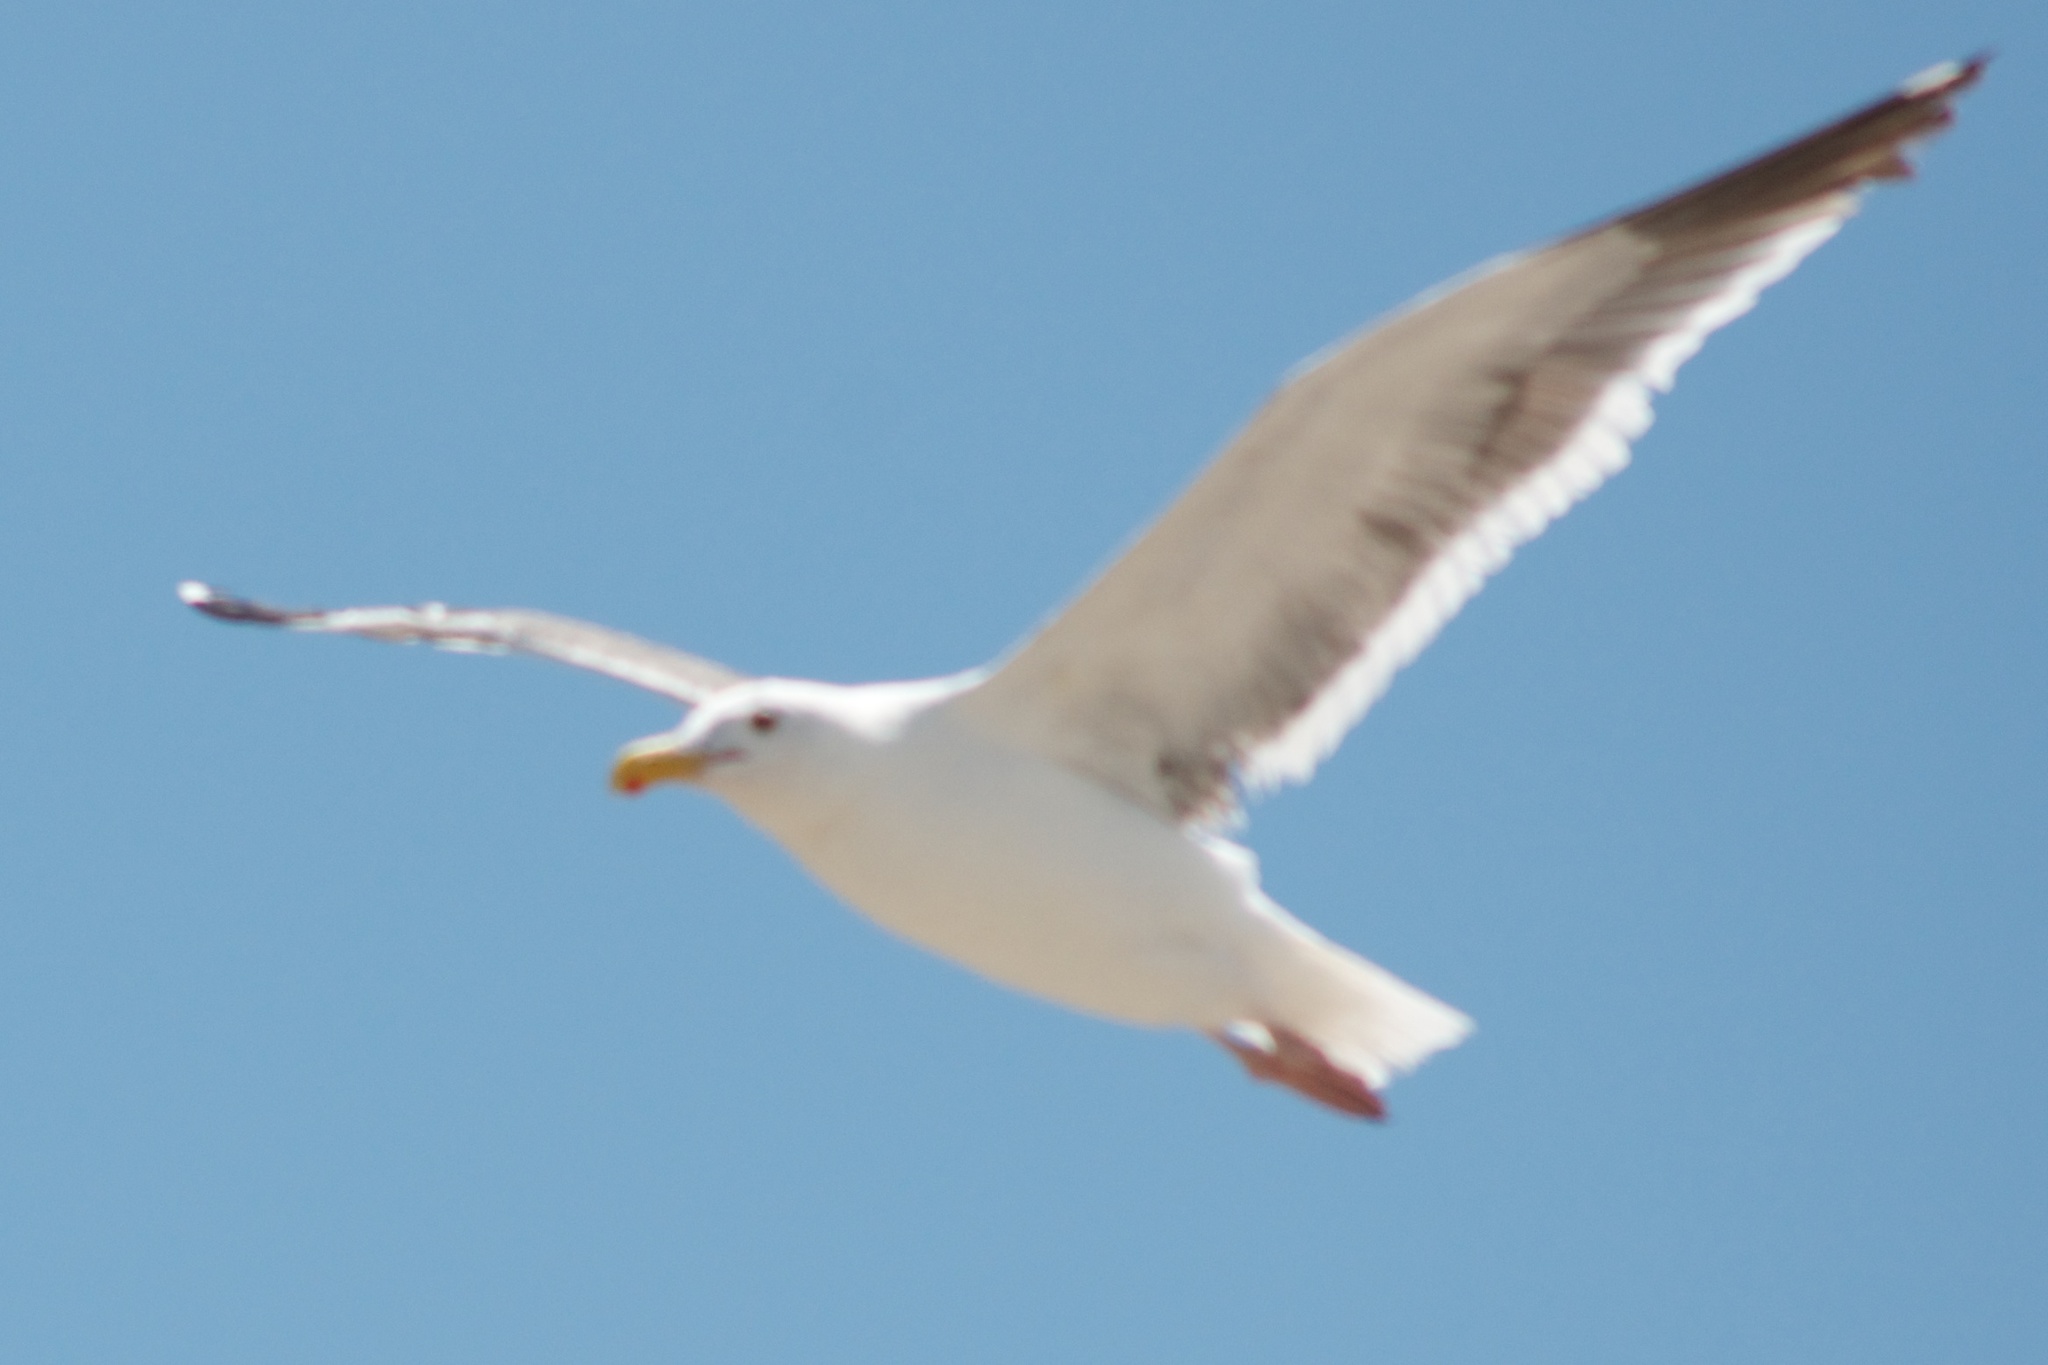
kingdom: Animalia
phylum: Chordata
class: Aves
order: Charadriiformes
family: Laridae
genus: Larus
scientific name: Larus occidentalis
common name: Western gull
